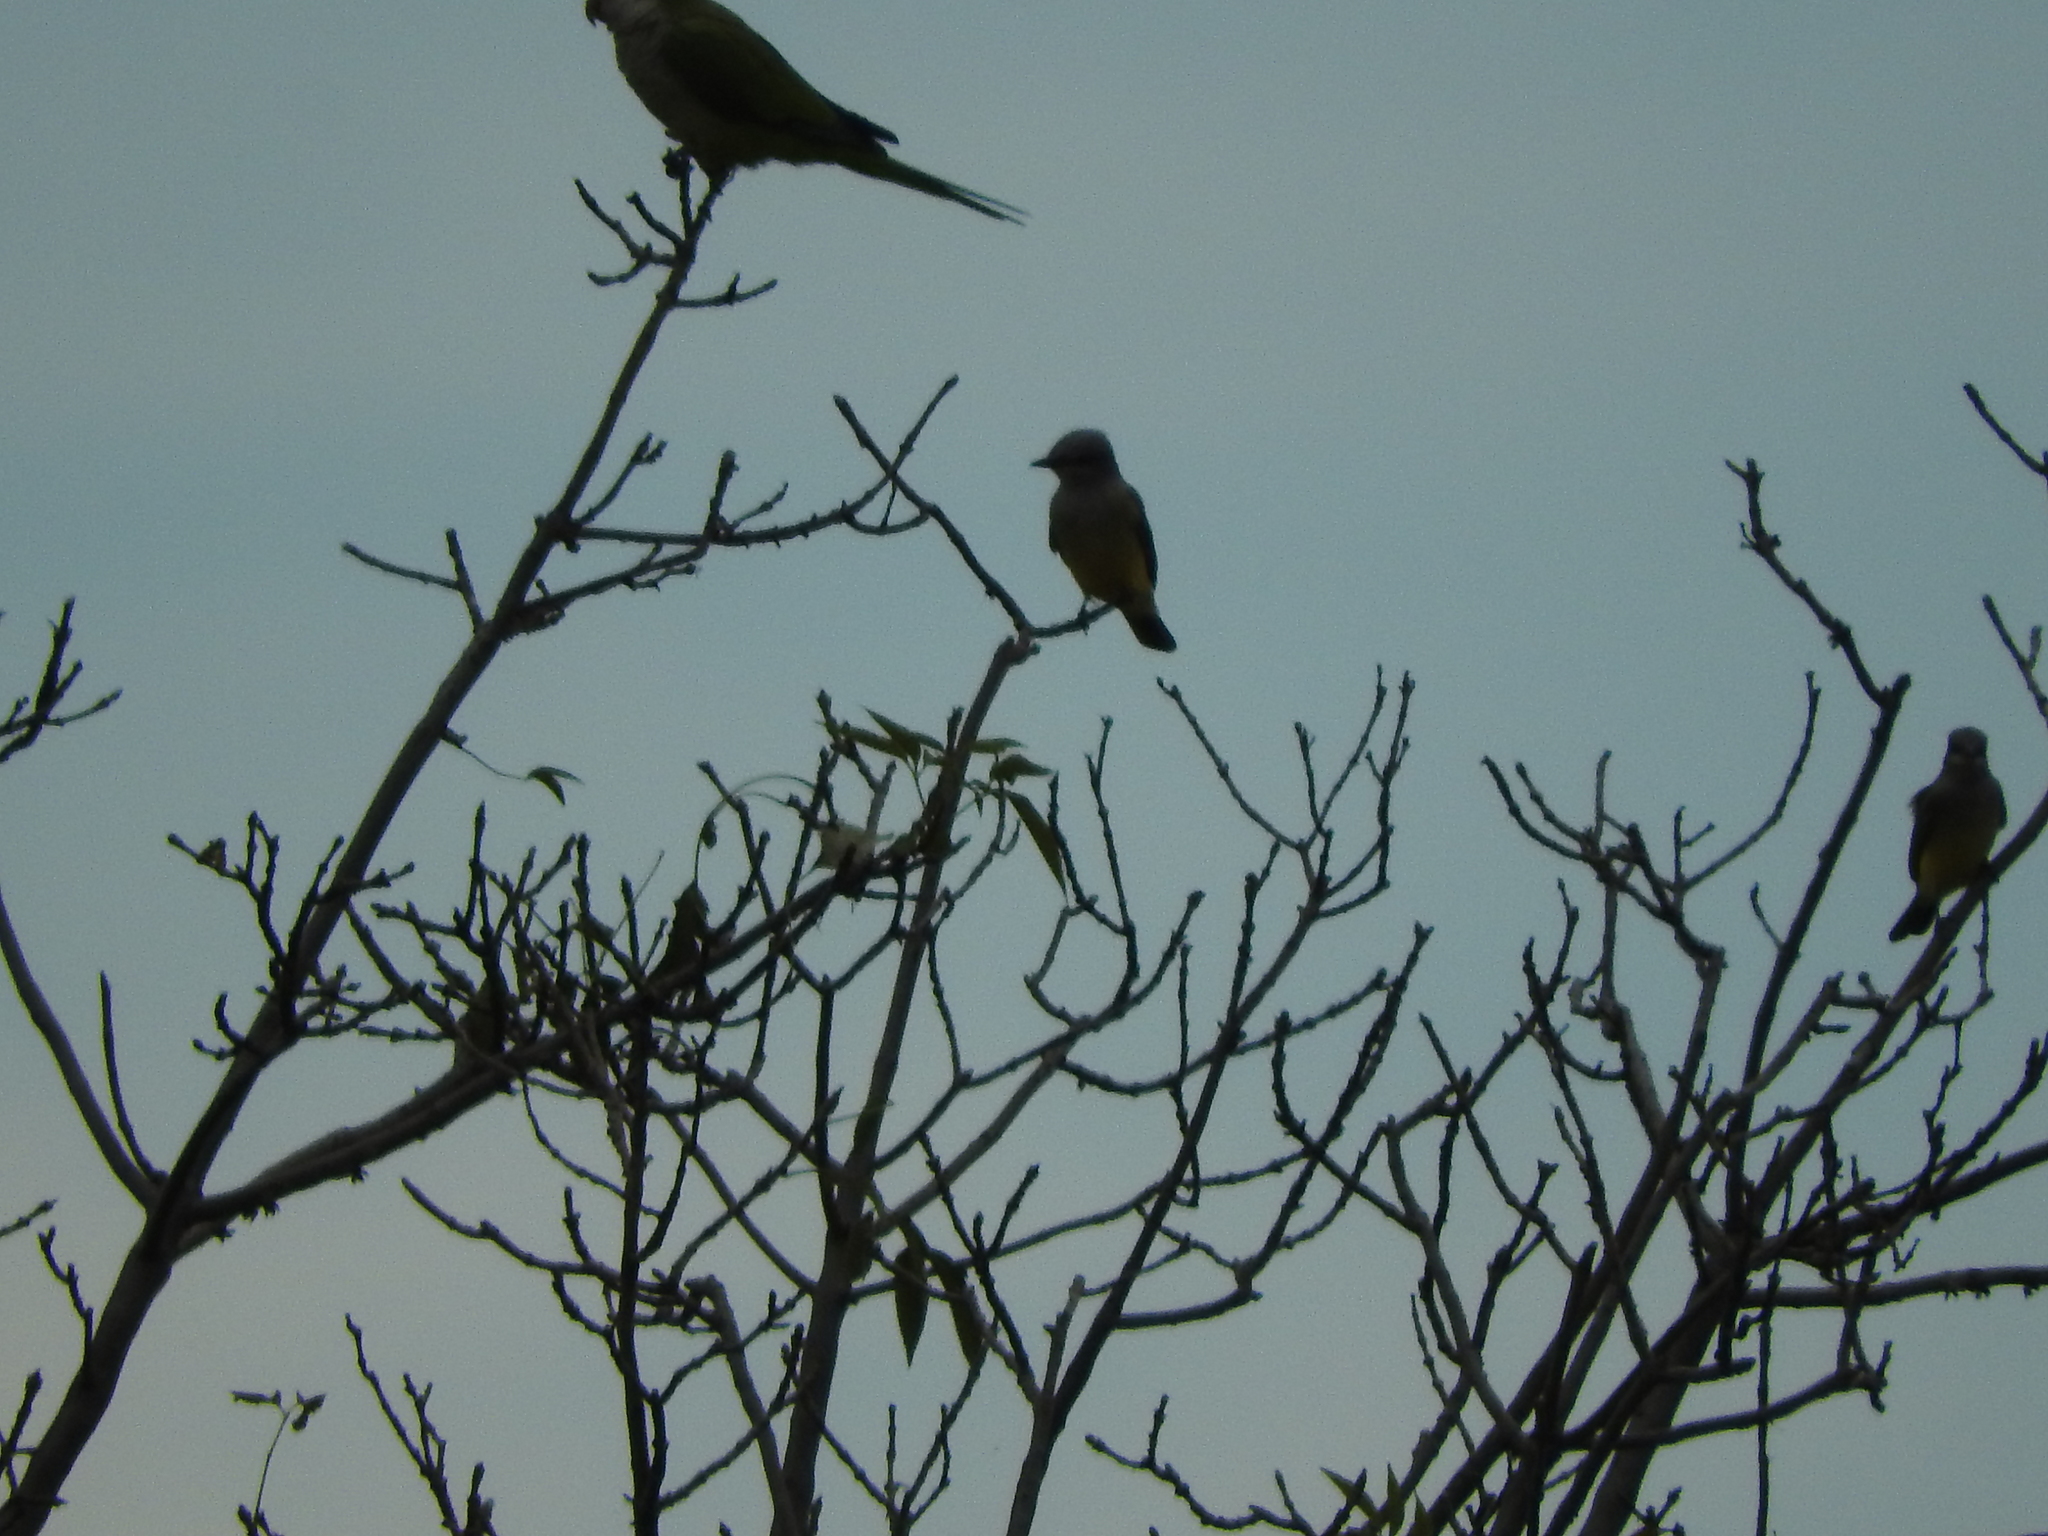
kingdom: Animalia
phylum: Chordata
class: Aves
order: Passeriformes
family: Tyrannidae
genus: Tyrannus
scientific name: Tyrannus vociferans
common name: Cassin's kingbird
